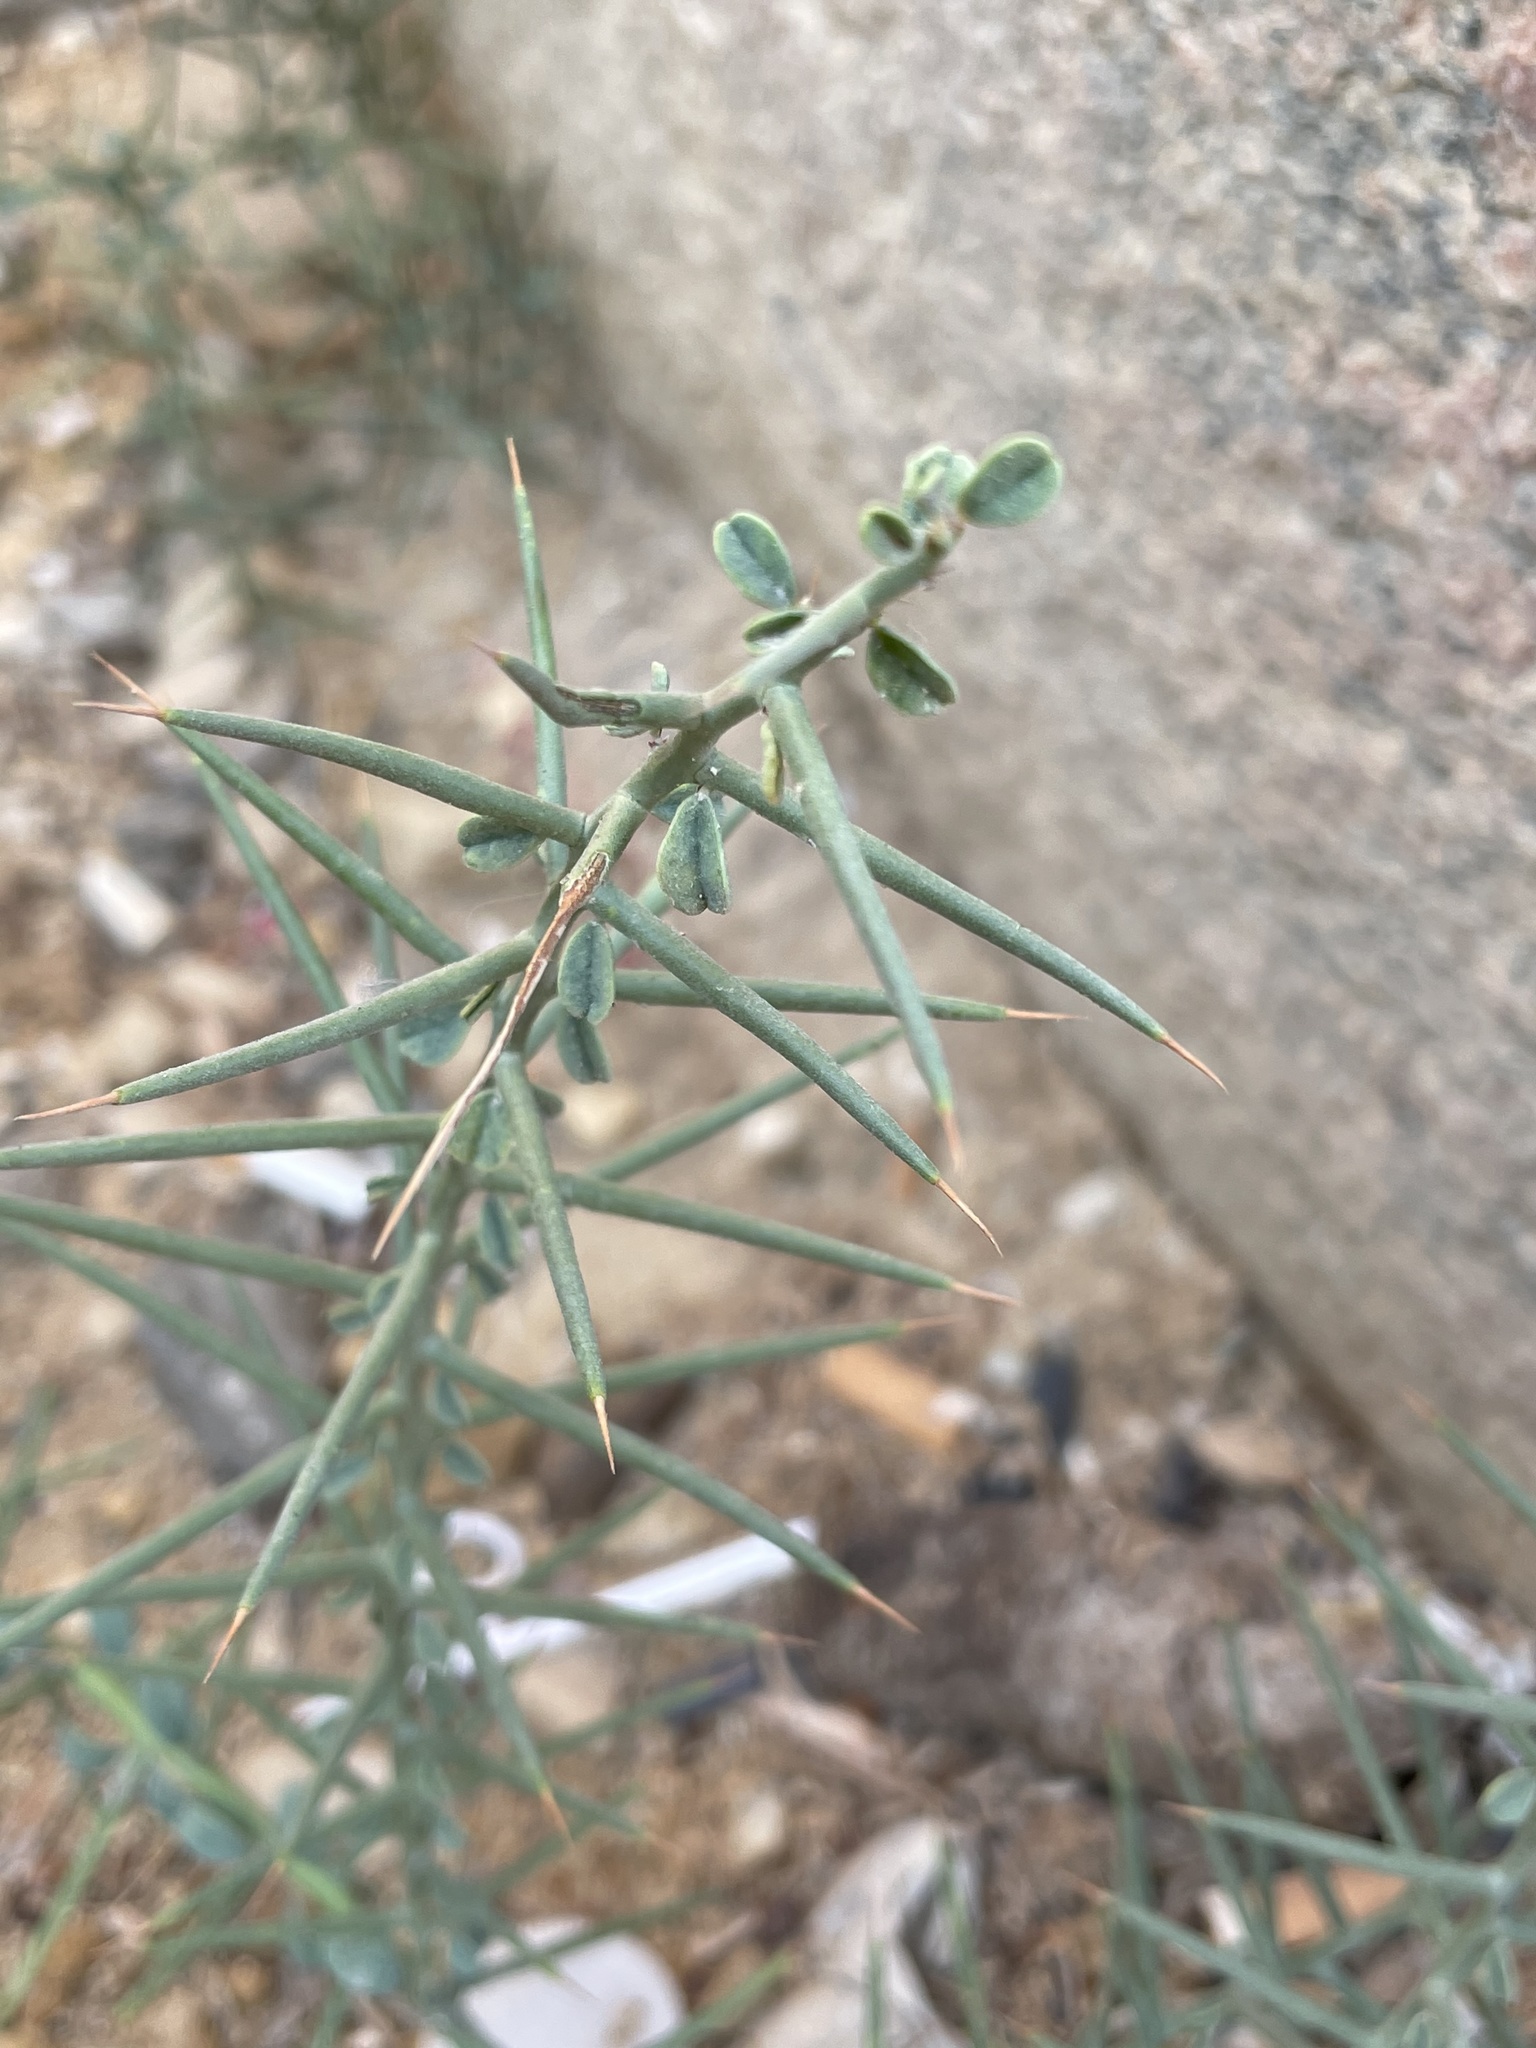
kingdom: Plantae
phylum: Tracheophyta
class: Magnoliopsida
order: Fabales
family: Fabaceae
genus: Alhagi
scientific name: Alhagi graecorum
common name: Persian mannaplant
